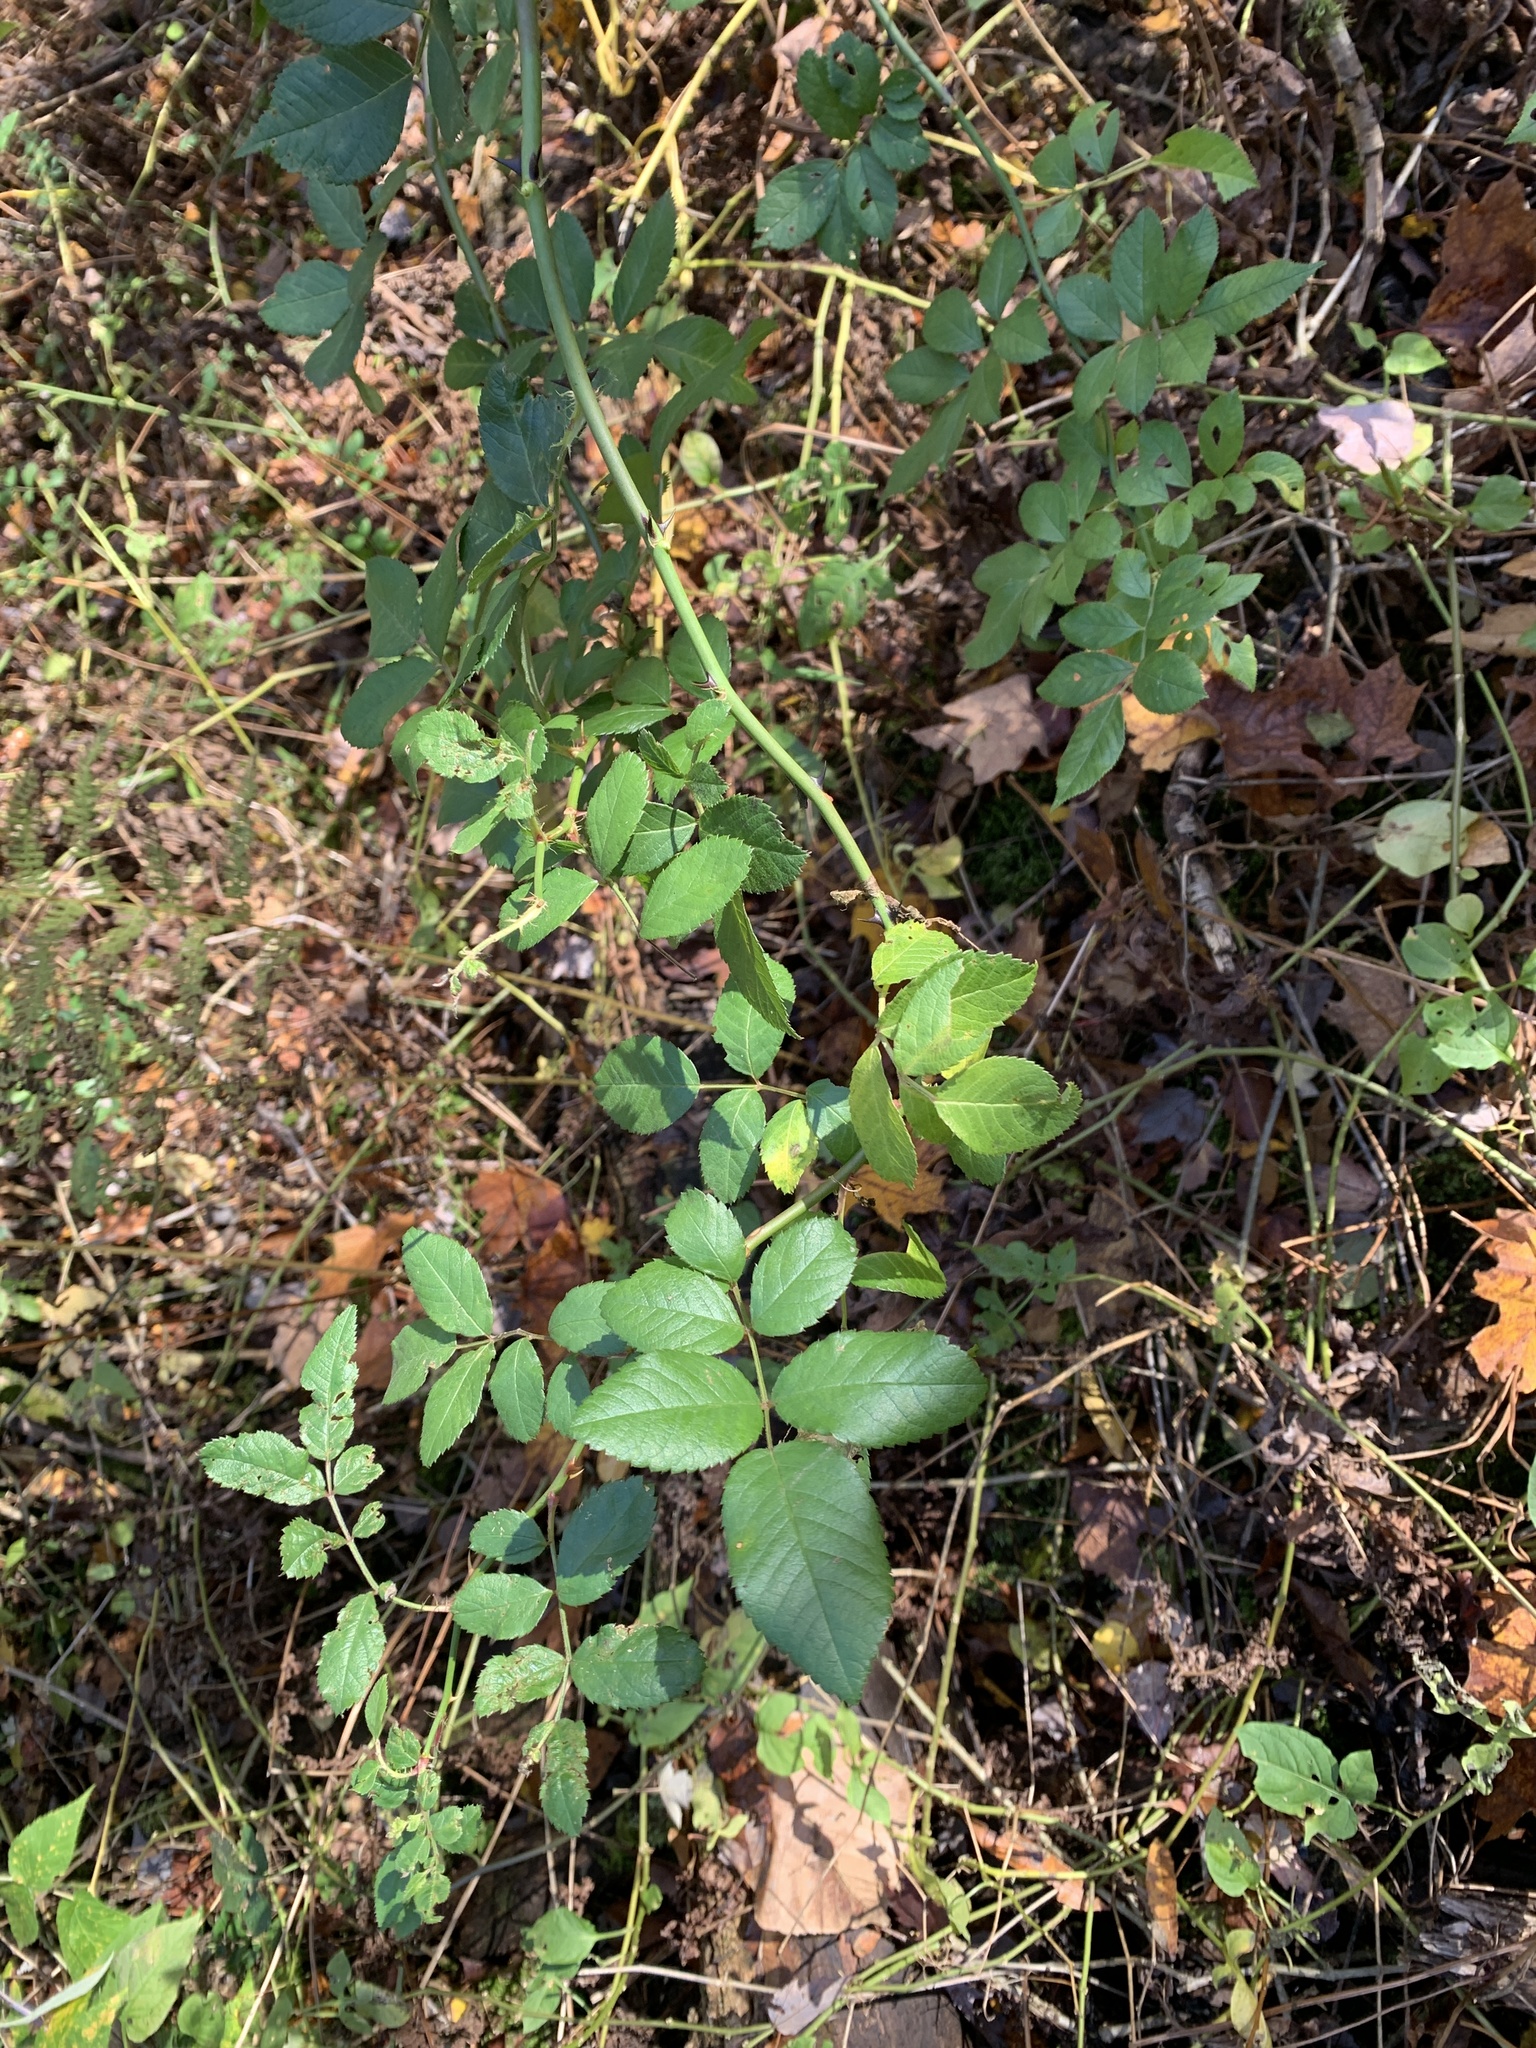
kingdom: Plantae
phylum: Tracheophyta
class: Magnoliopsida
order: Rosales
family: Rosaceae
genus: Rosa
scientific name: Rosa multiflora
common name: Multiflora rose
